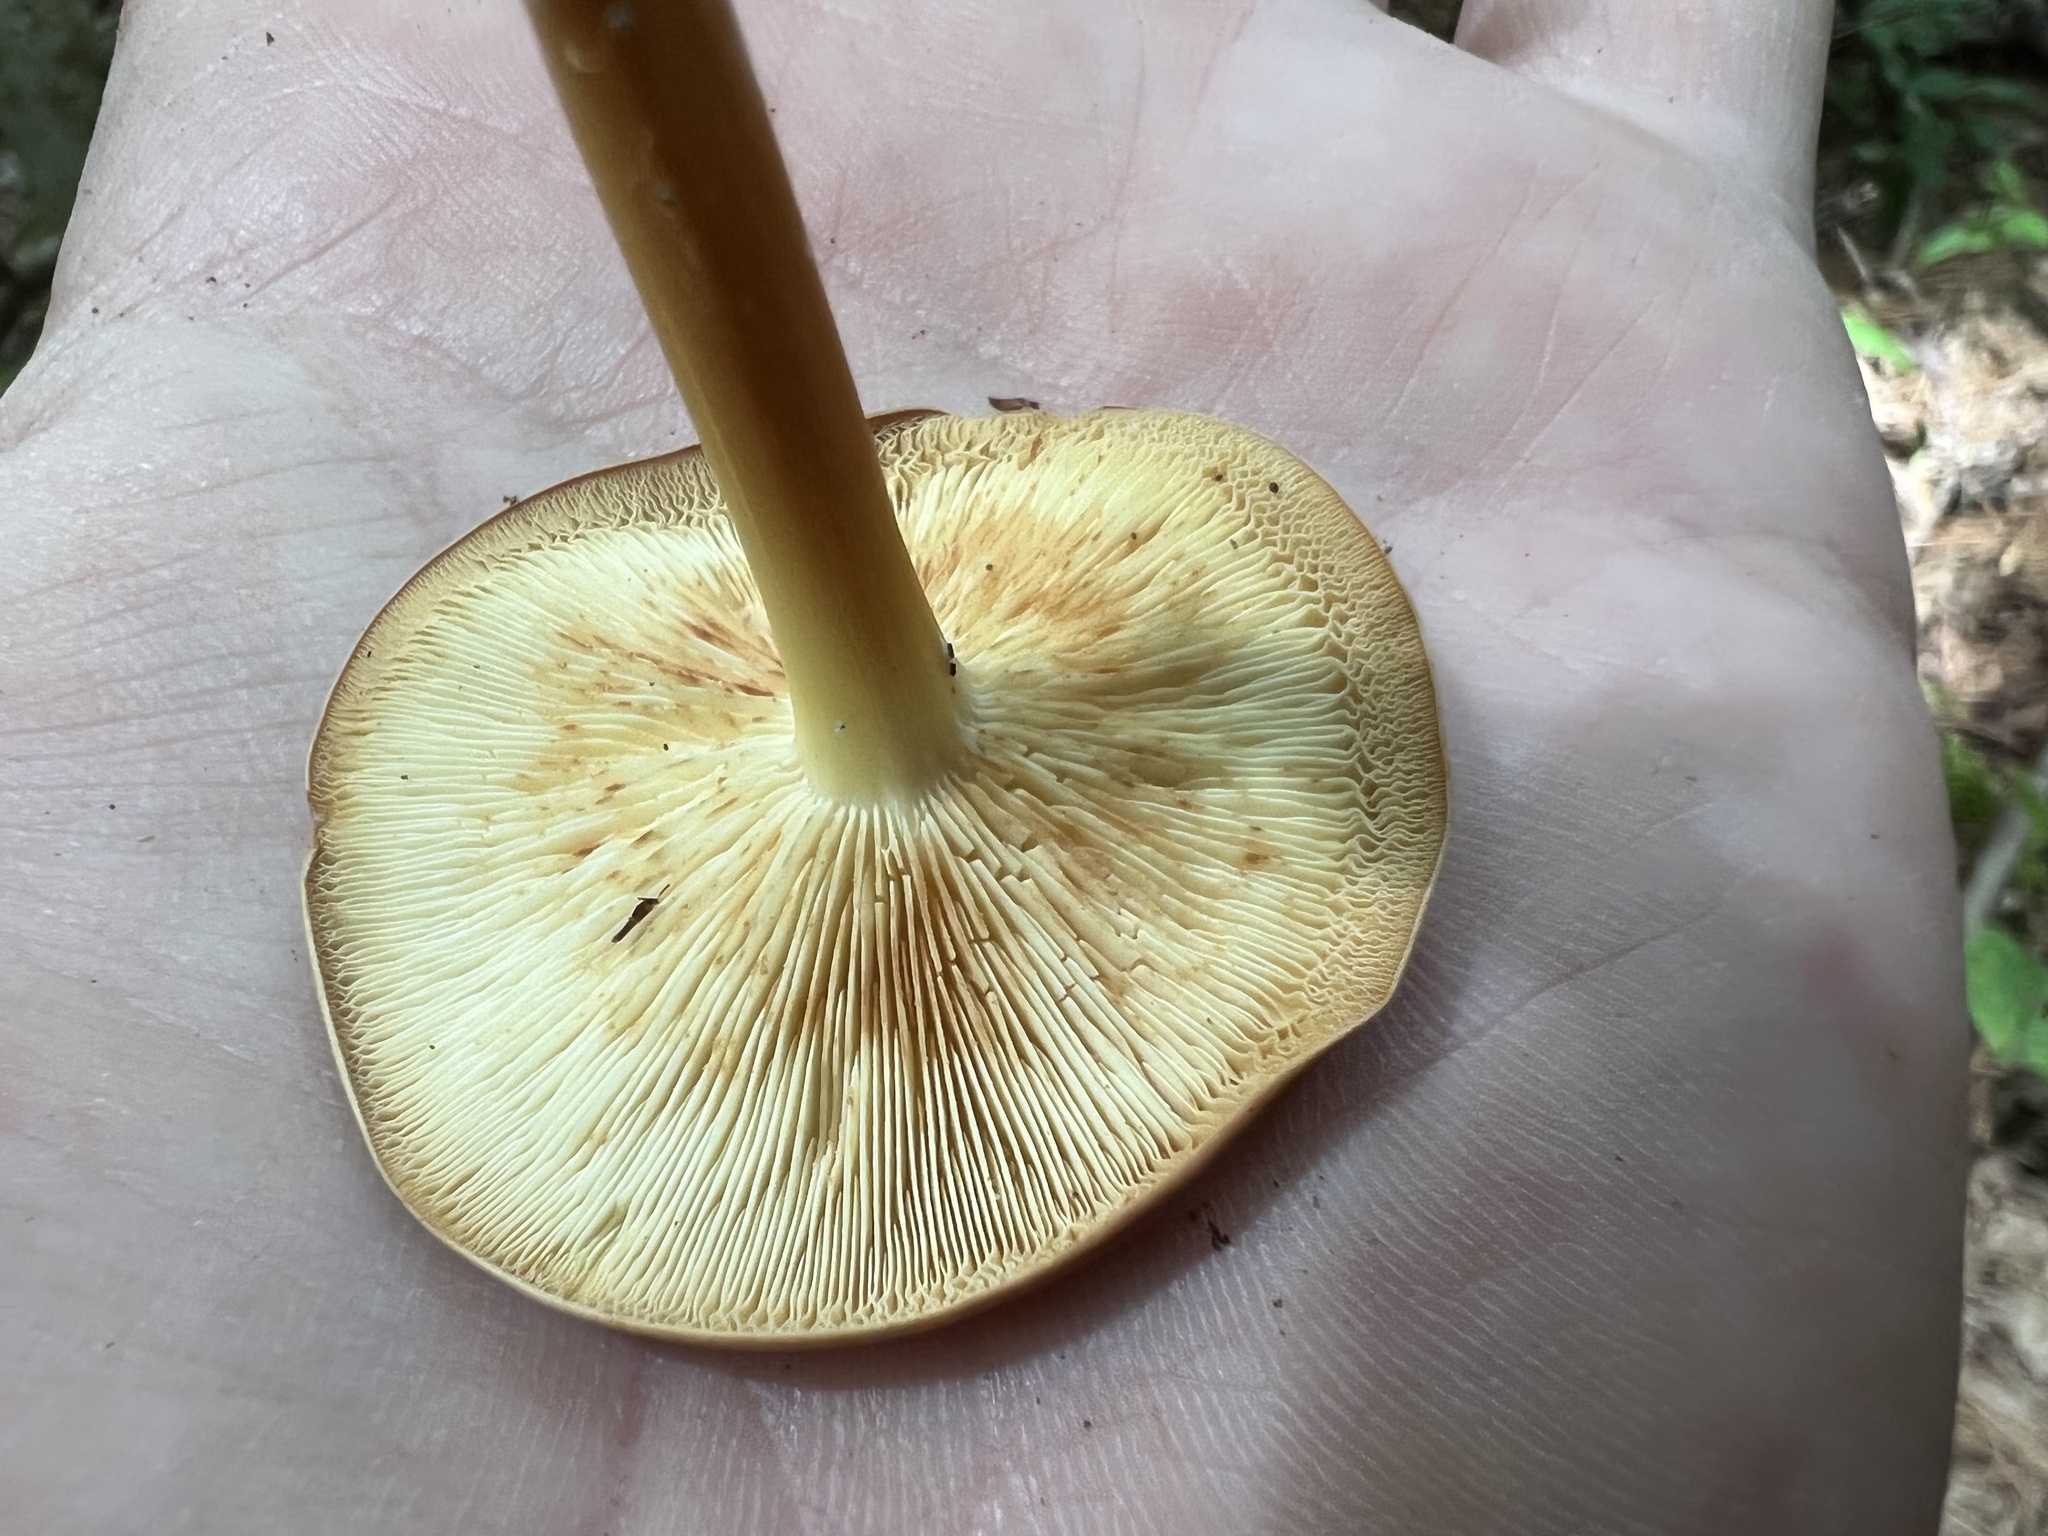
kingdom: Fungi
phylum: Basidiomycota
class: Agaricomycetes
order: Agaricales
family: Omphalotaceae
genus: Gymnopus
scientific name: Gymnopus dryophilus
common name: Penny top
